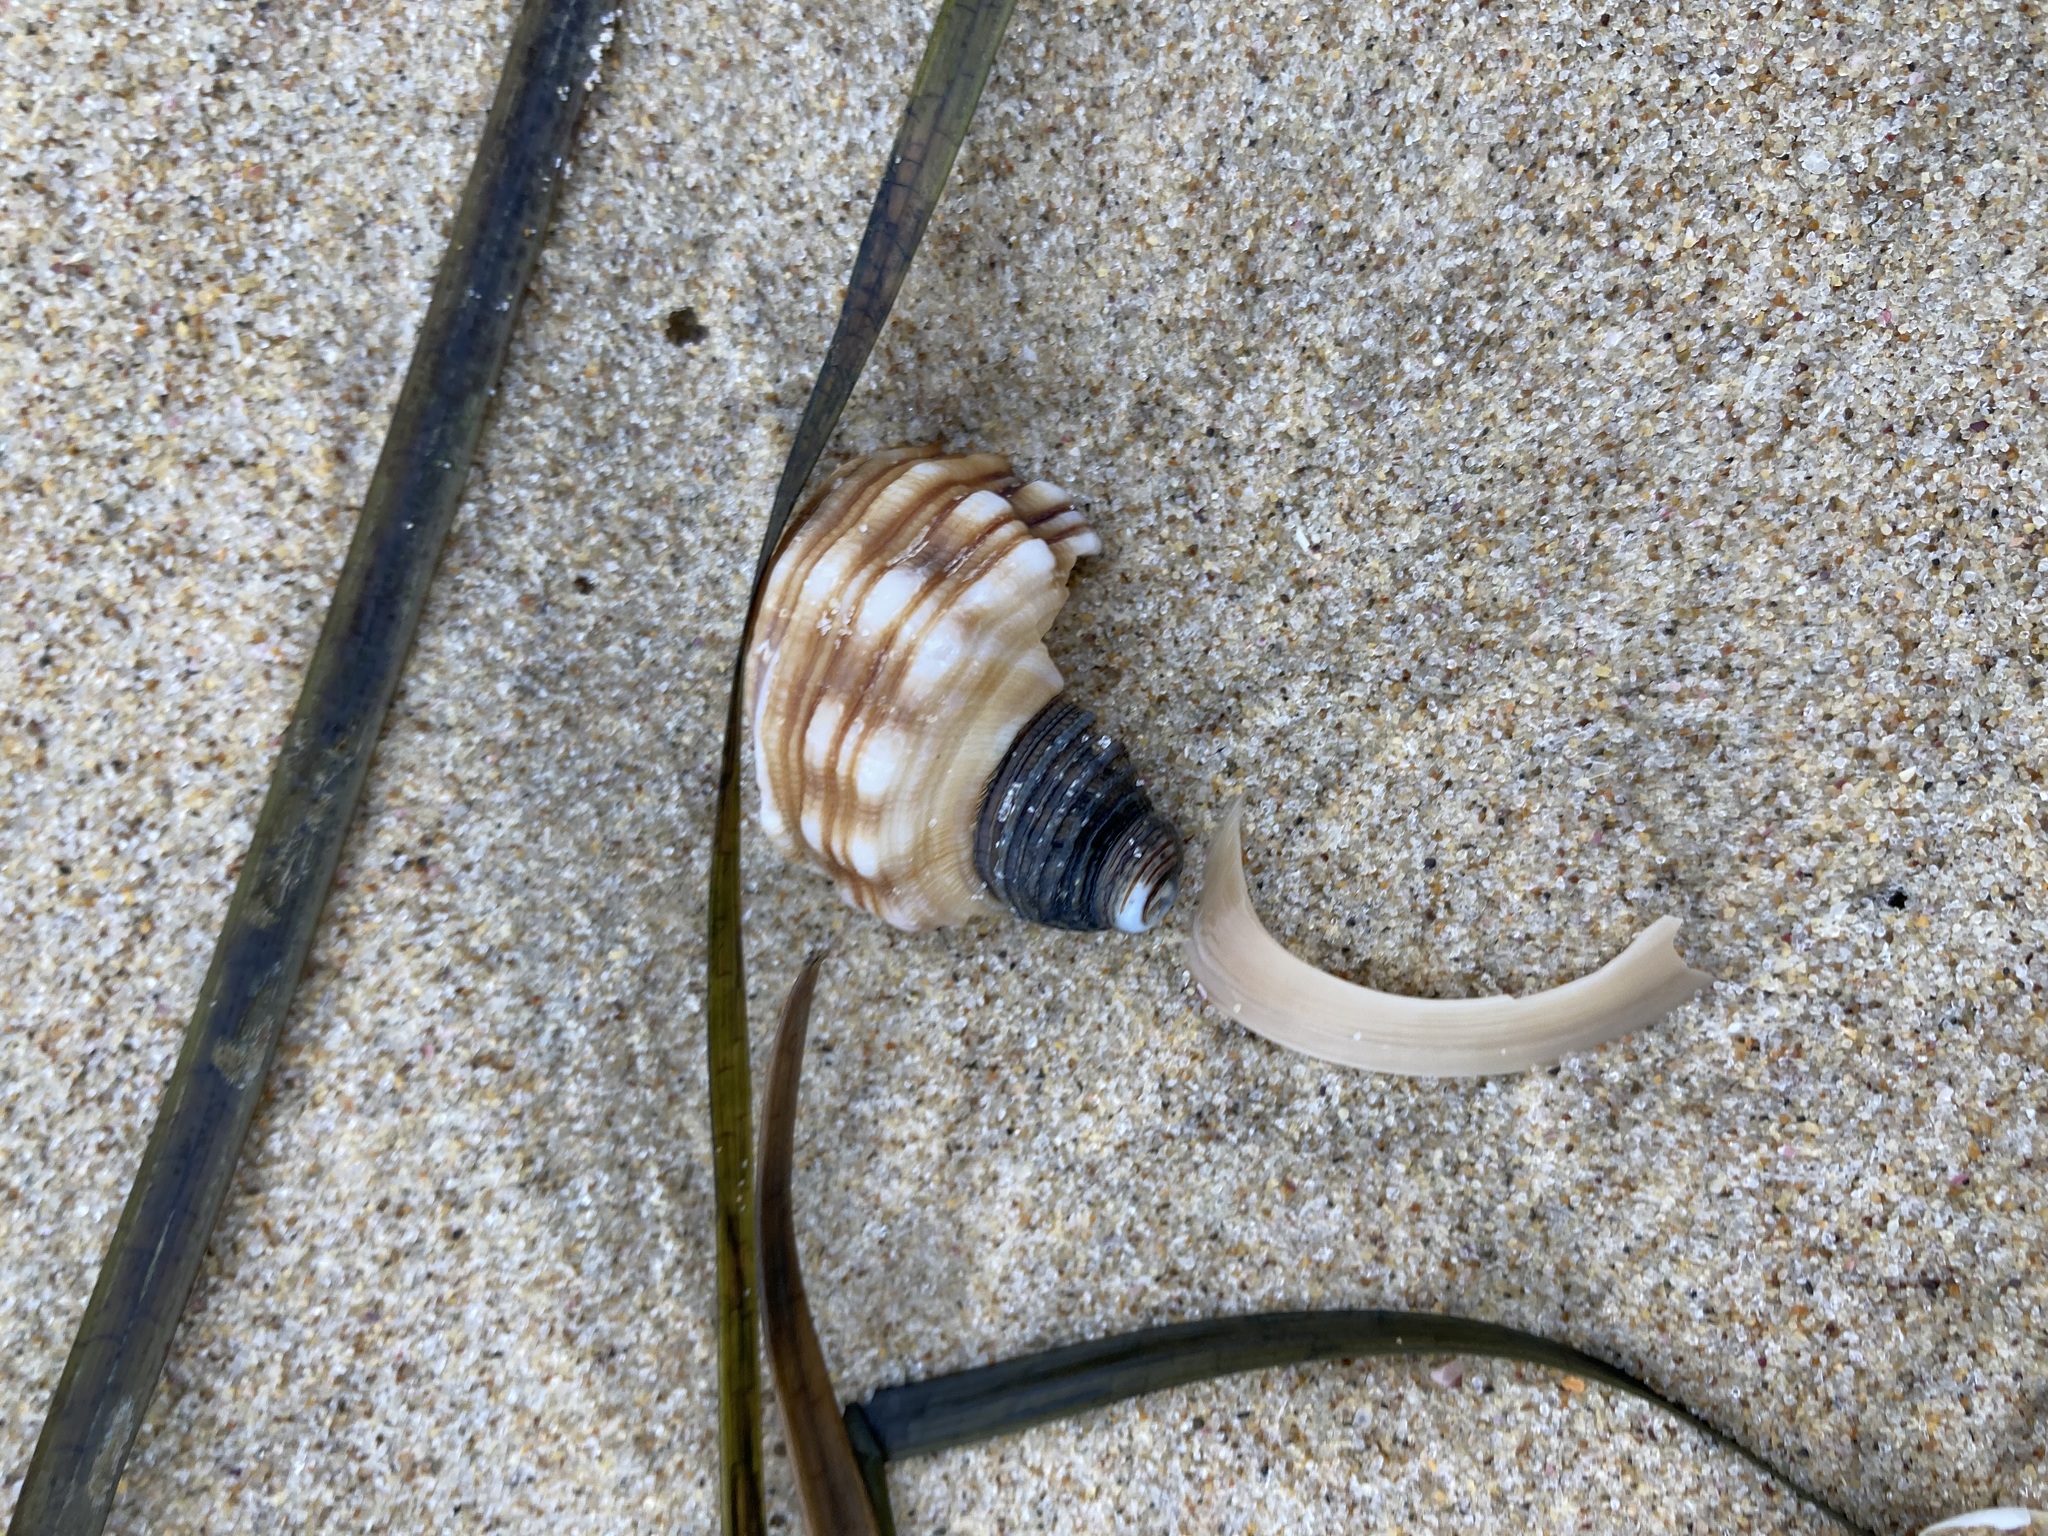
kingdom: Animalia
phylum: Mollusca
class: Gastropoda
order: Littorinimorpha
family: Cymatiidae
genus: Cabestana
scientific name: Cabestana spengleri
